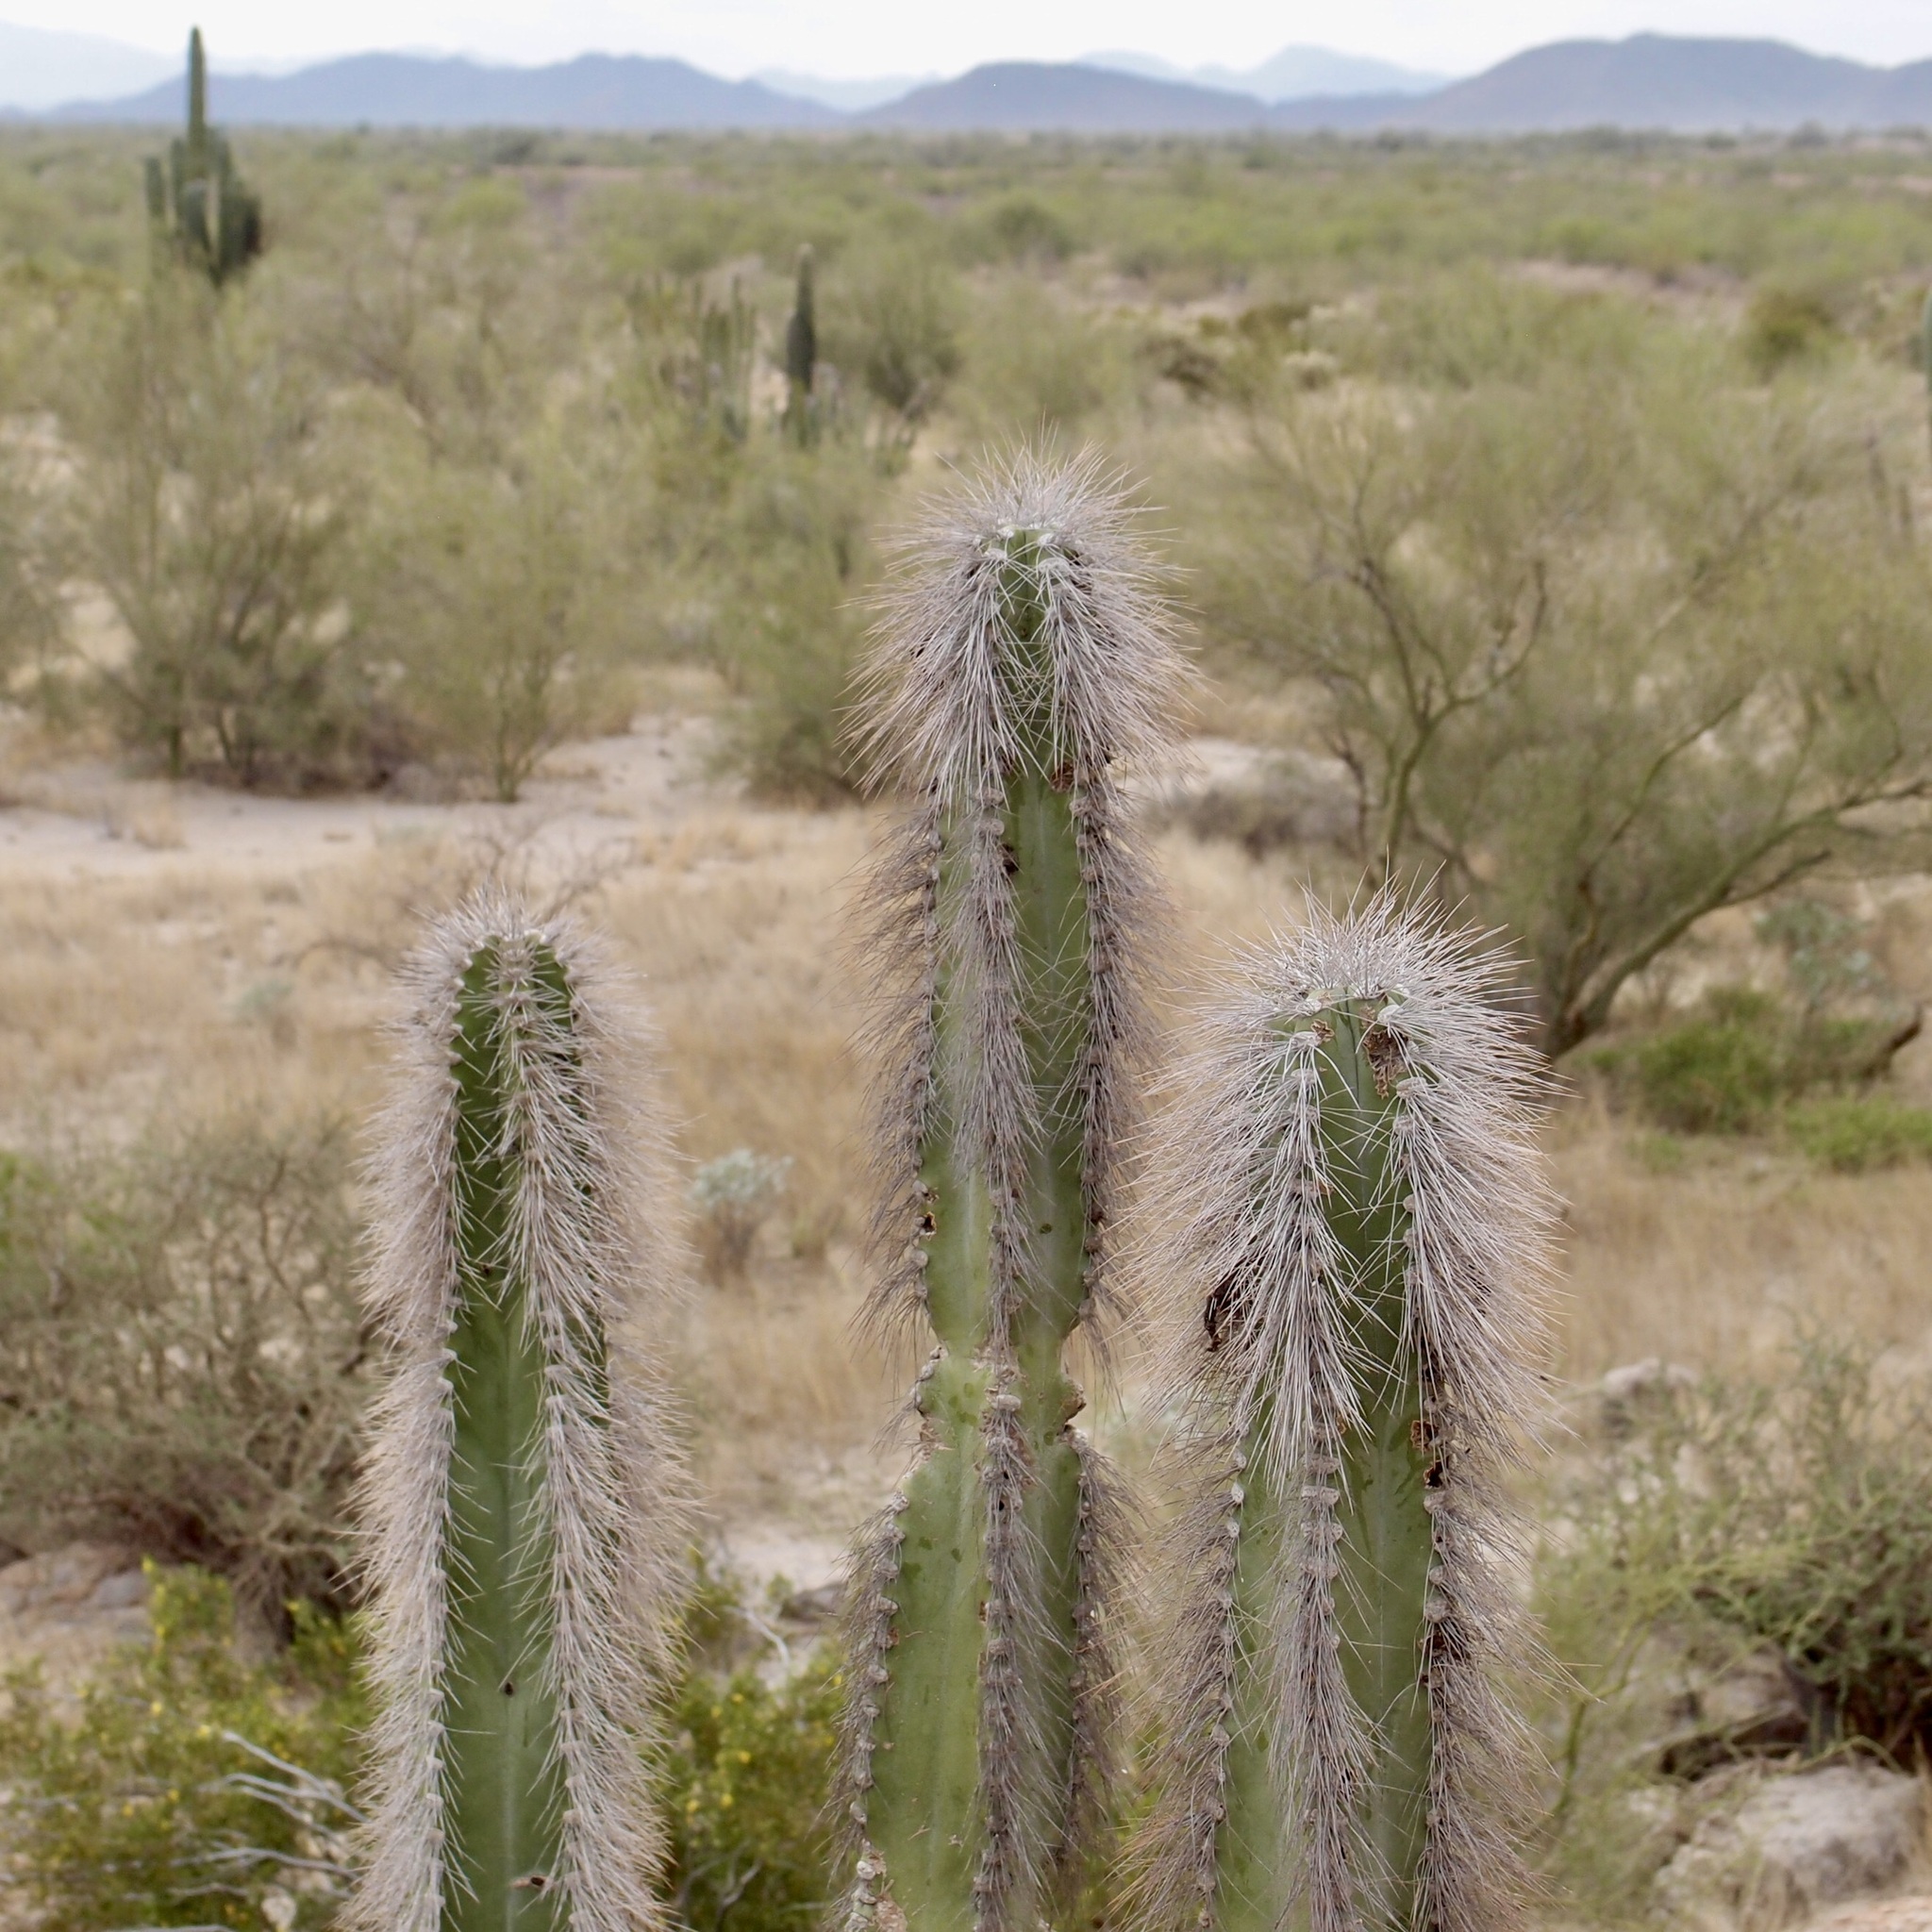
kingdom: Plantae
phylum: Tracheophyta
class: Magnoliopsida
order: Caryophyllales
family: Cactaceae
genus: Pachycereus
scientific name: Pachycereus schottii
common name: Senita cactus
